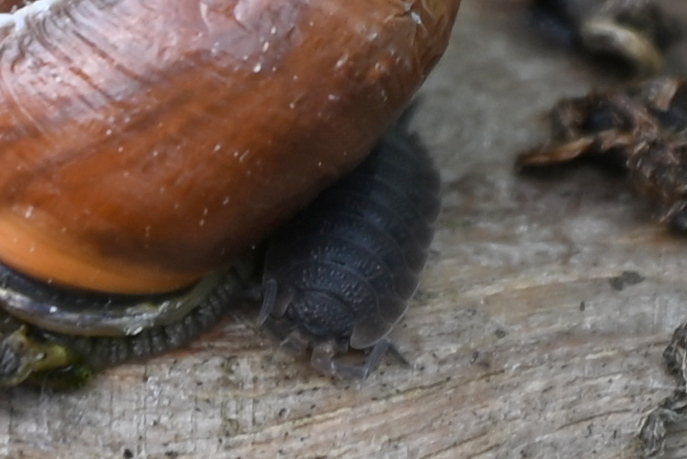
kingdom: Animalia
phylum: Arthropoda
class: Malacostraca
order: Isopoda
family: Porcellionidae
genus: Porcellio
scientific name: Porcellio scaber
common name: Common rough woodlouse
